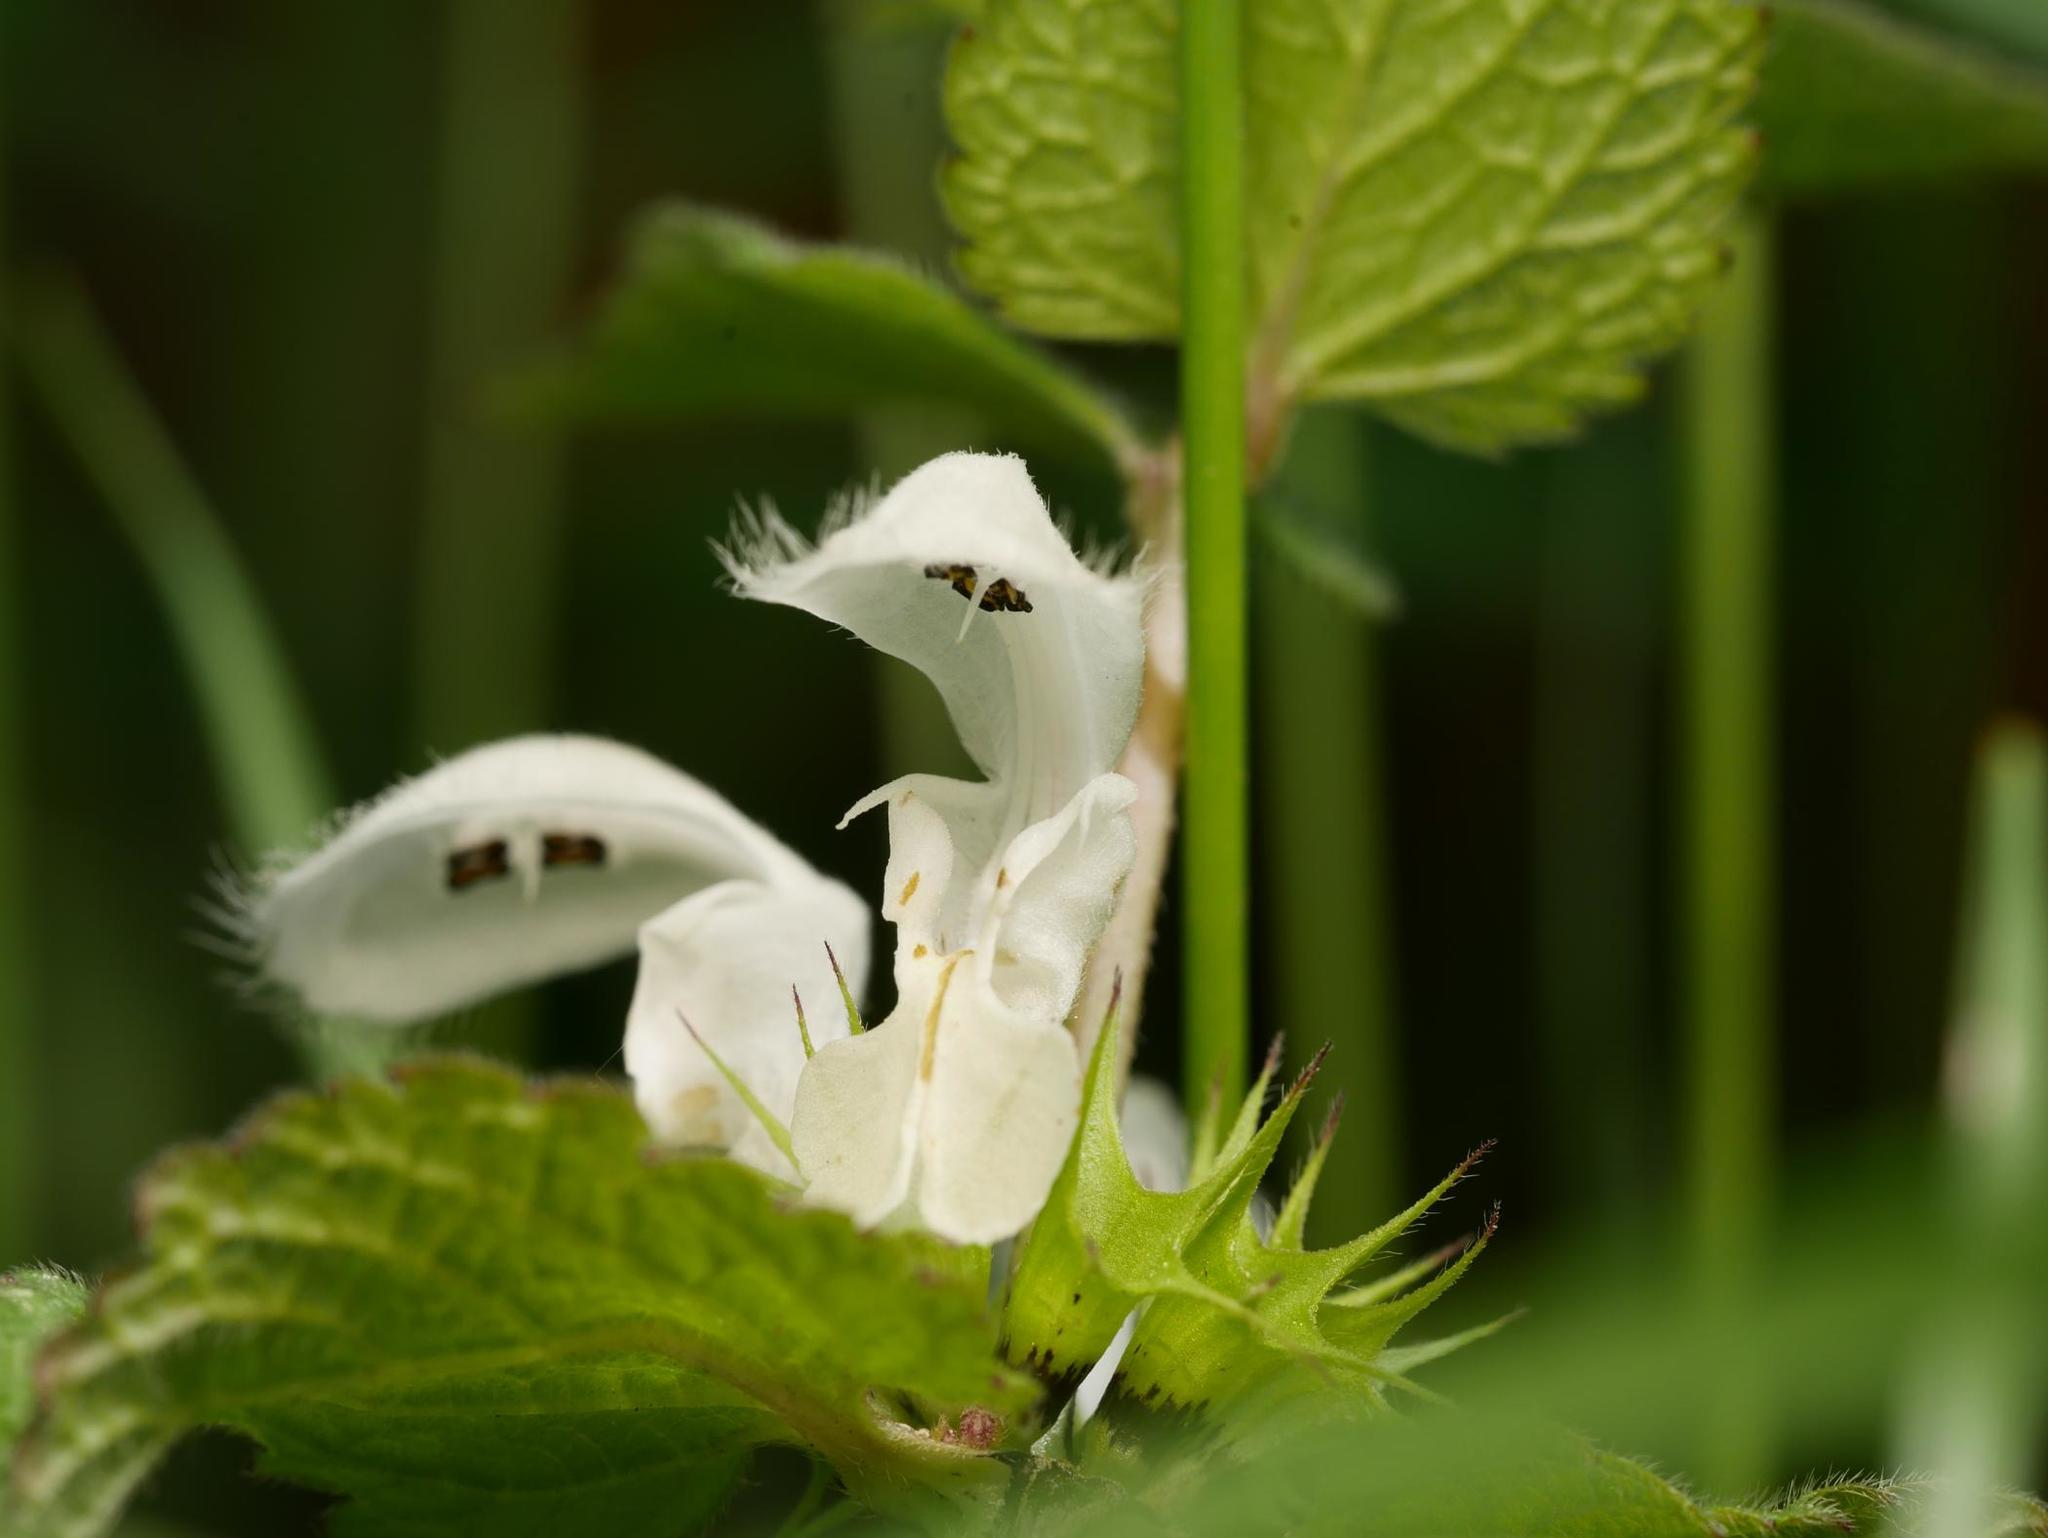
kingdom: Plantae
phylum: Tracheophyta
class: Magnoliopsida
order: Lamiales
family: Lamiaceae
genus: Lamium
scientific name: Lamium album
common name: White dead-nettle
